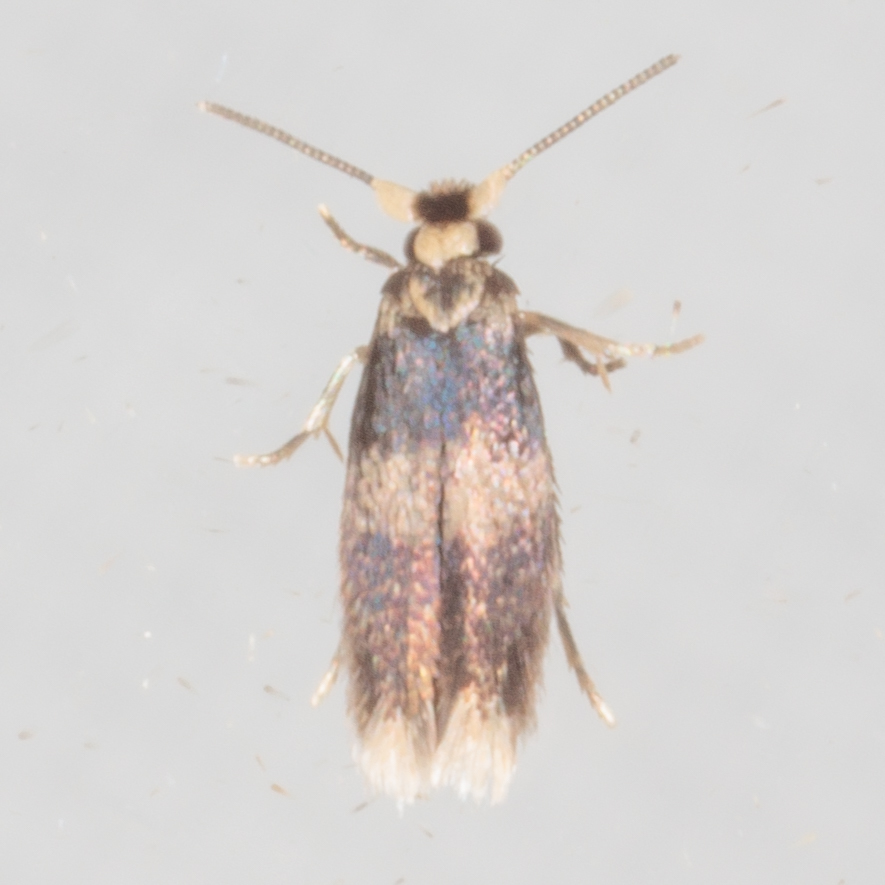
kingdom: Animalia
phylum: Arthropoda
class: Insecta
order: Lepidoptera
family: Nepticulidae
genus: Stigmella
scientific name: Stigmella nigriverticella
